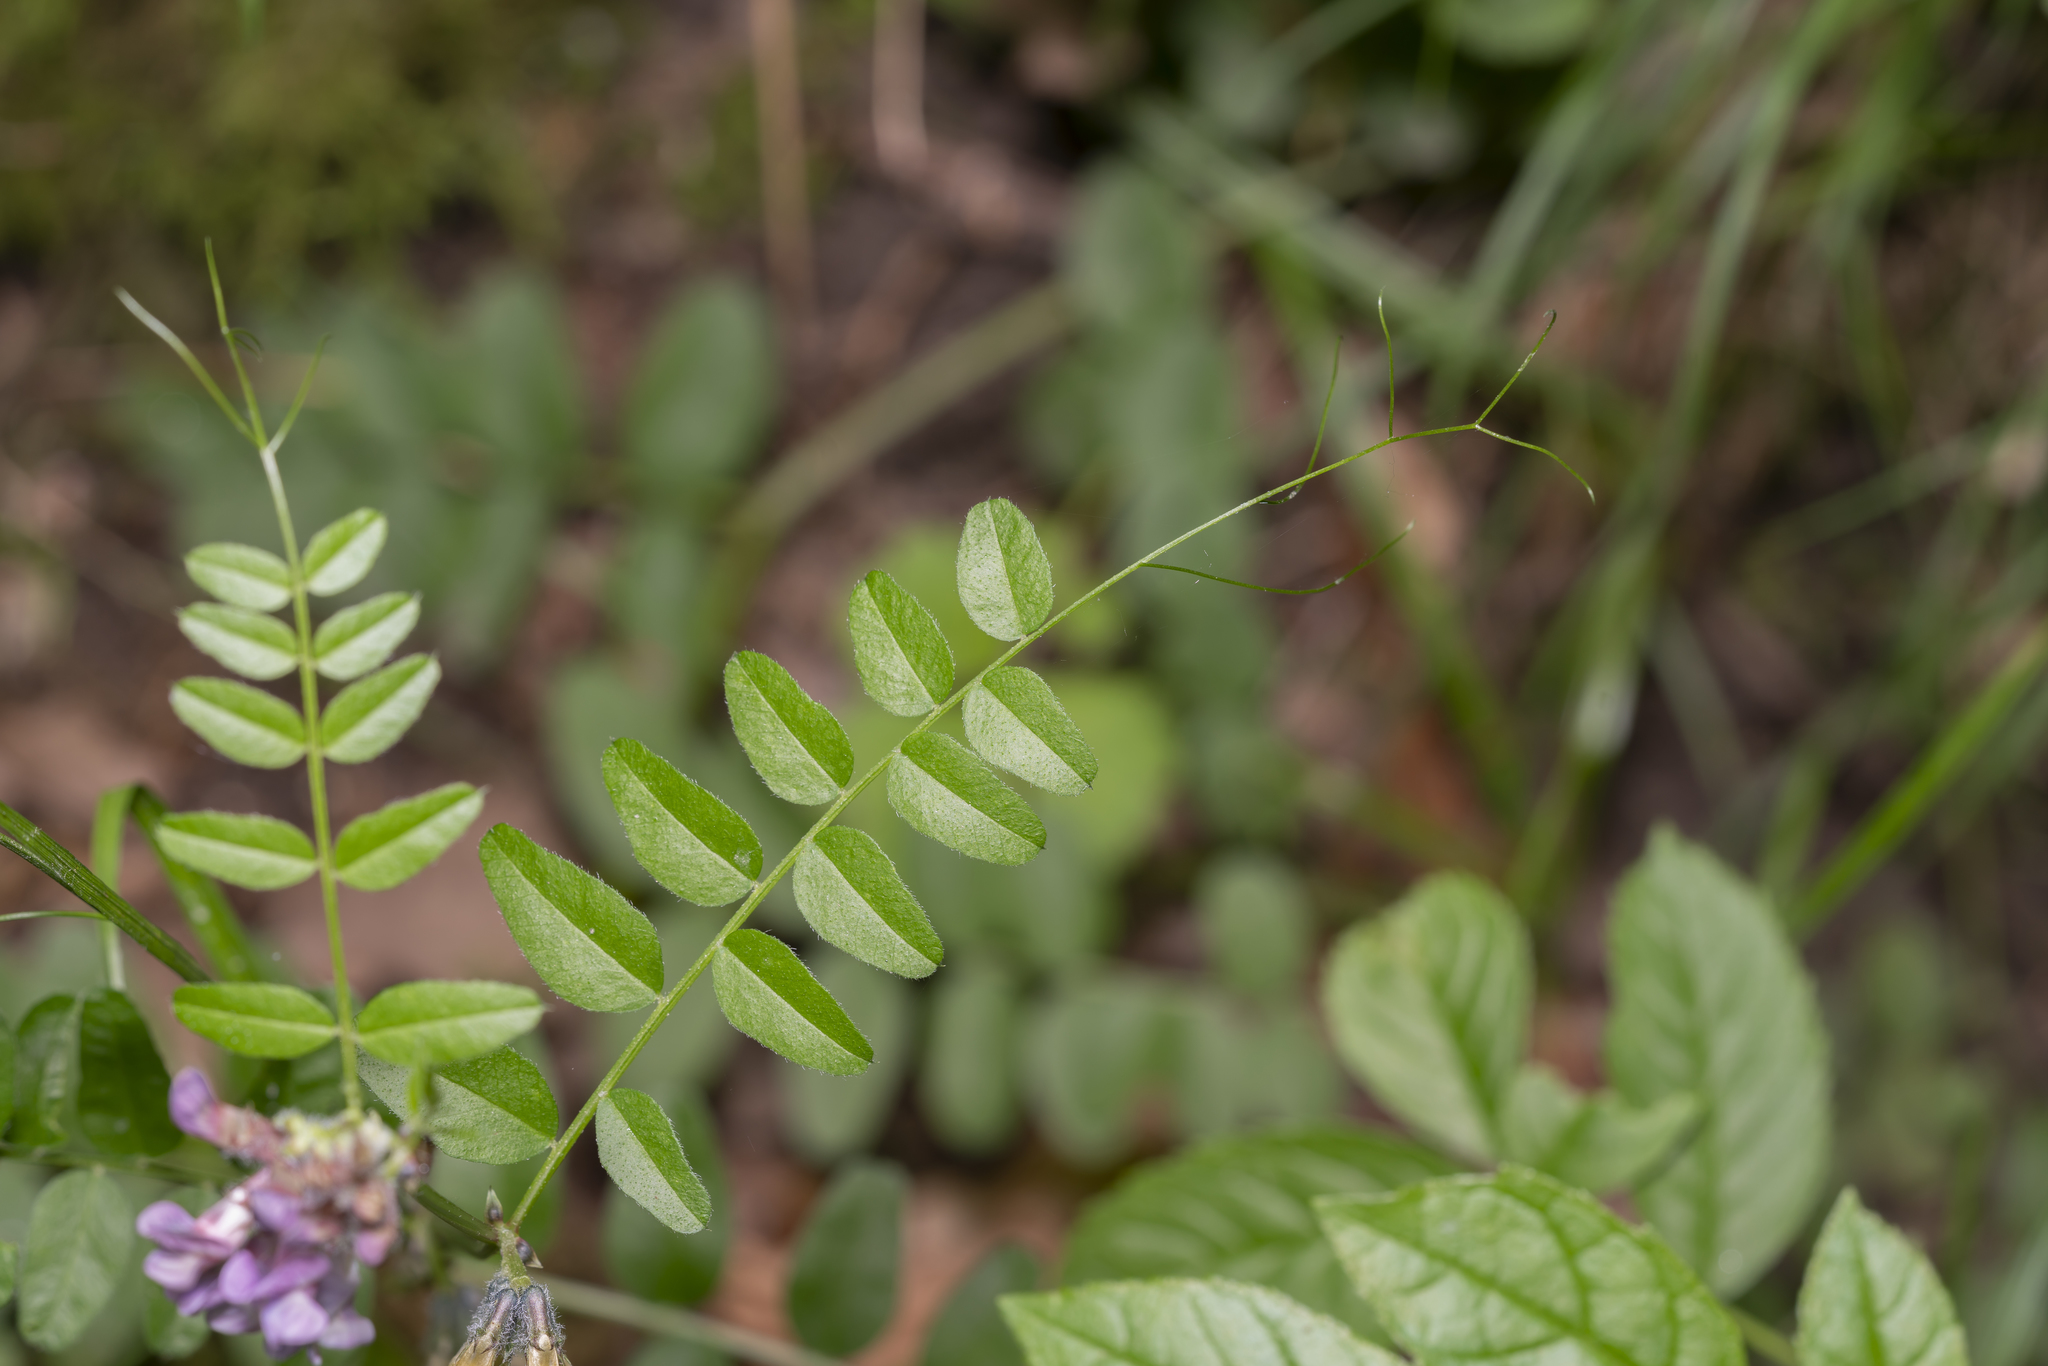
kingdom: Plantae
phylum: Tracheophyta
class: Magnoliopsida
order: Fabales
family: Fabaceae
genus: Vicia
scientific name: Vicia sepium
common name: Bush vetch
